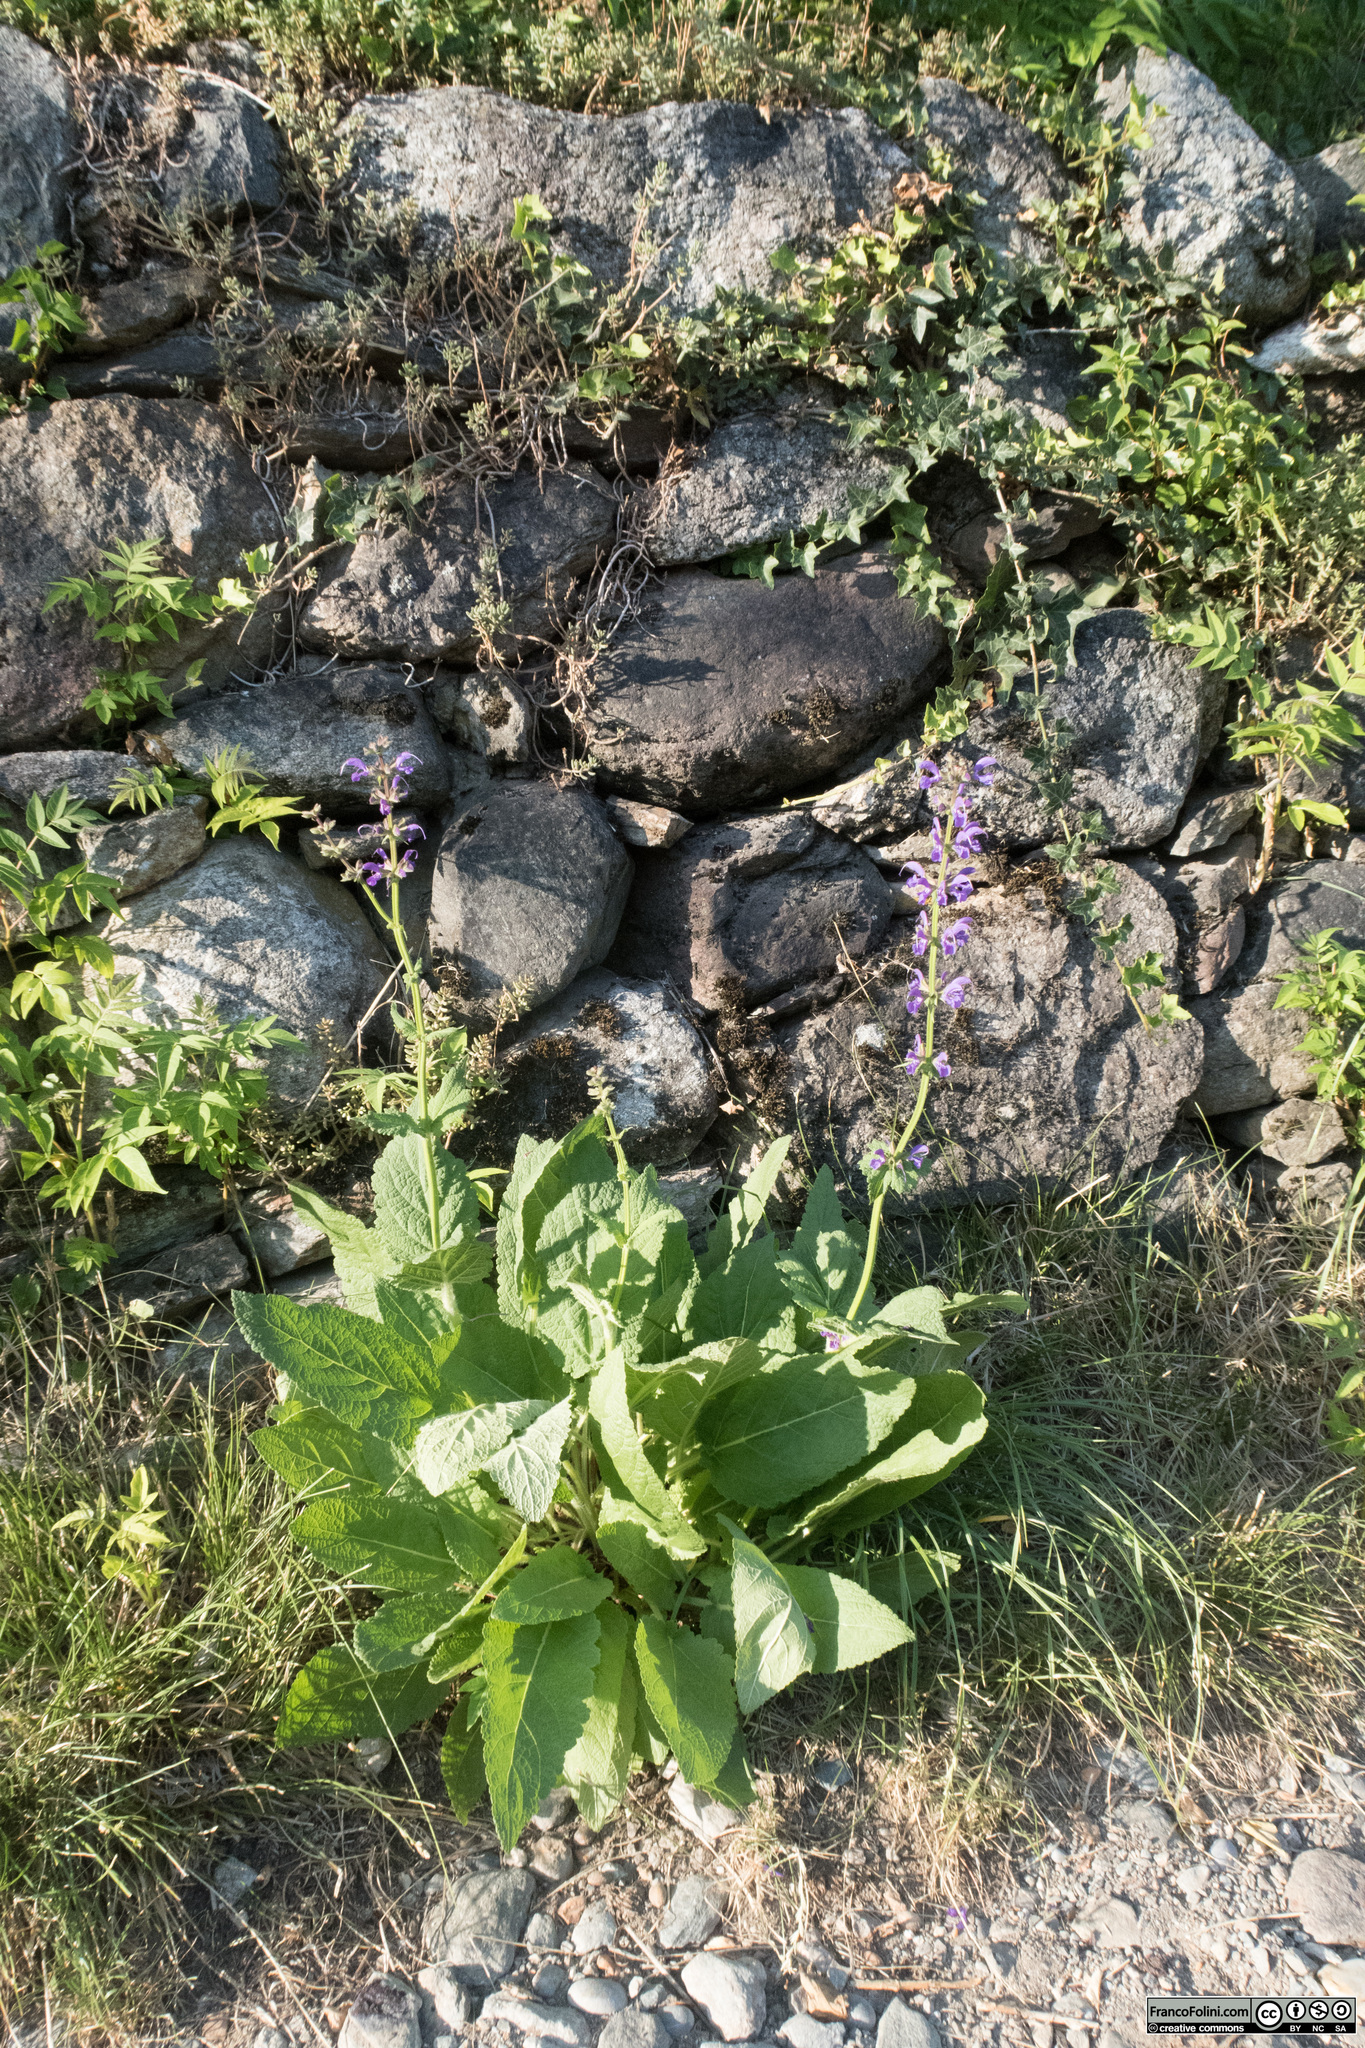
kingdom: Plantae
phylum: Tracheophyta
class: Magnoliopsida
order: Lamiales
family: Lamiaceae
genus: Salvia
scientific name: Salvia pratensis
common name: Meadow sage
